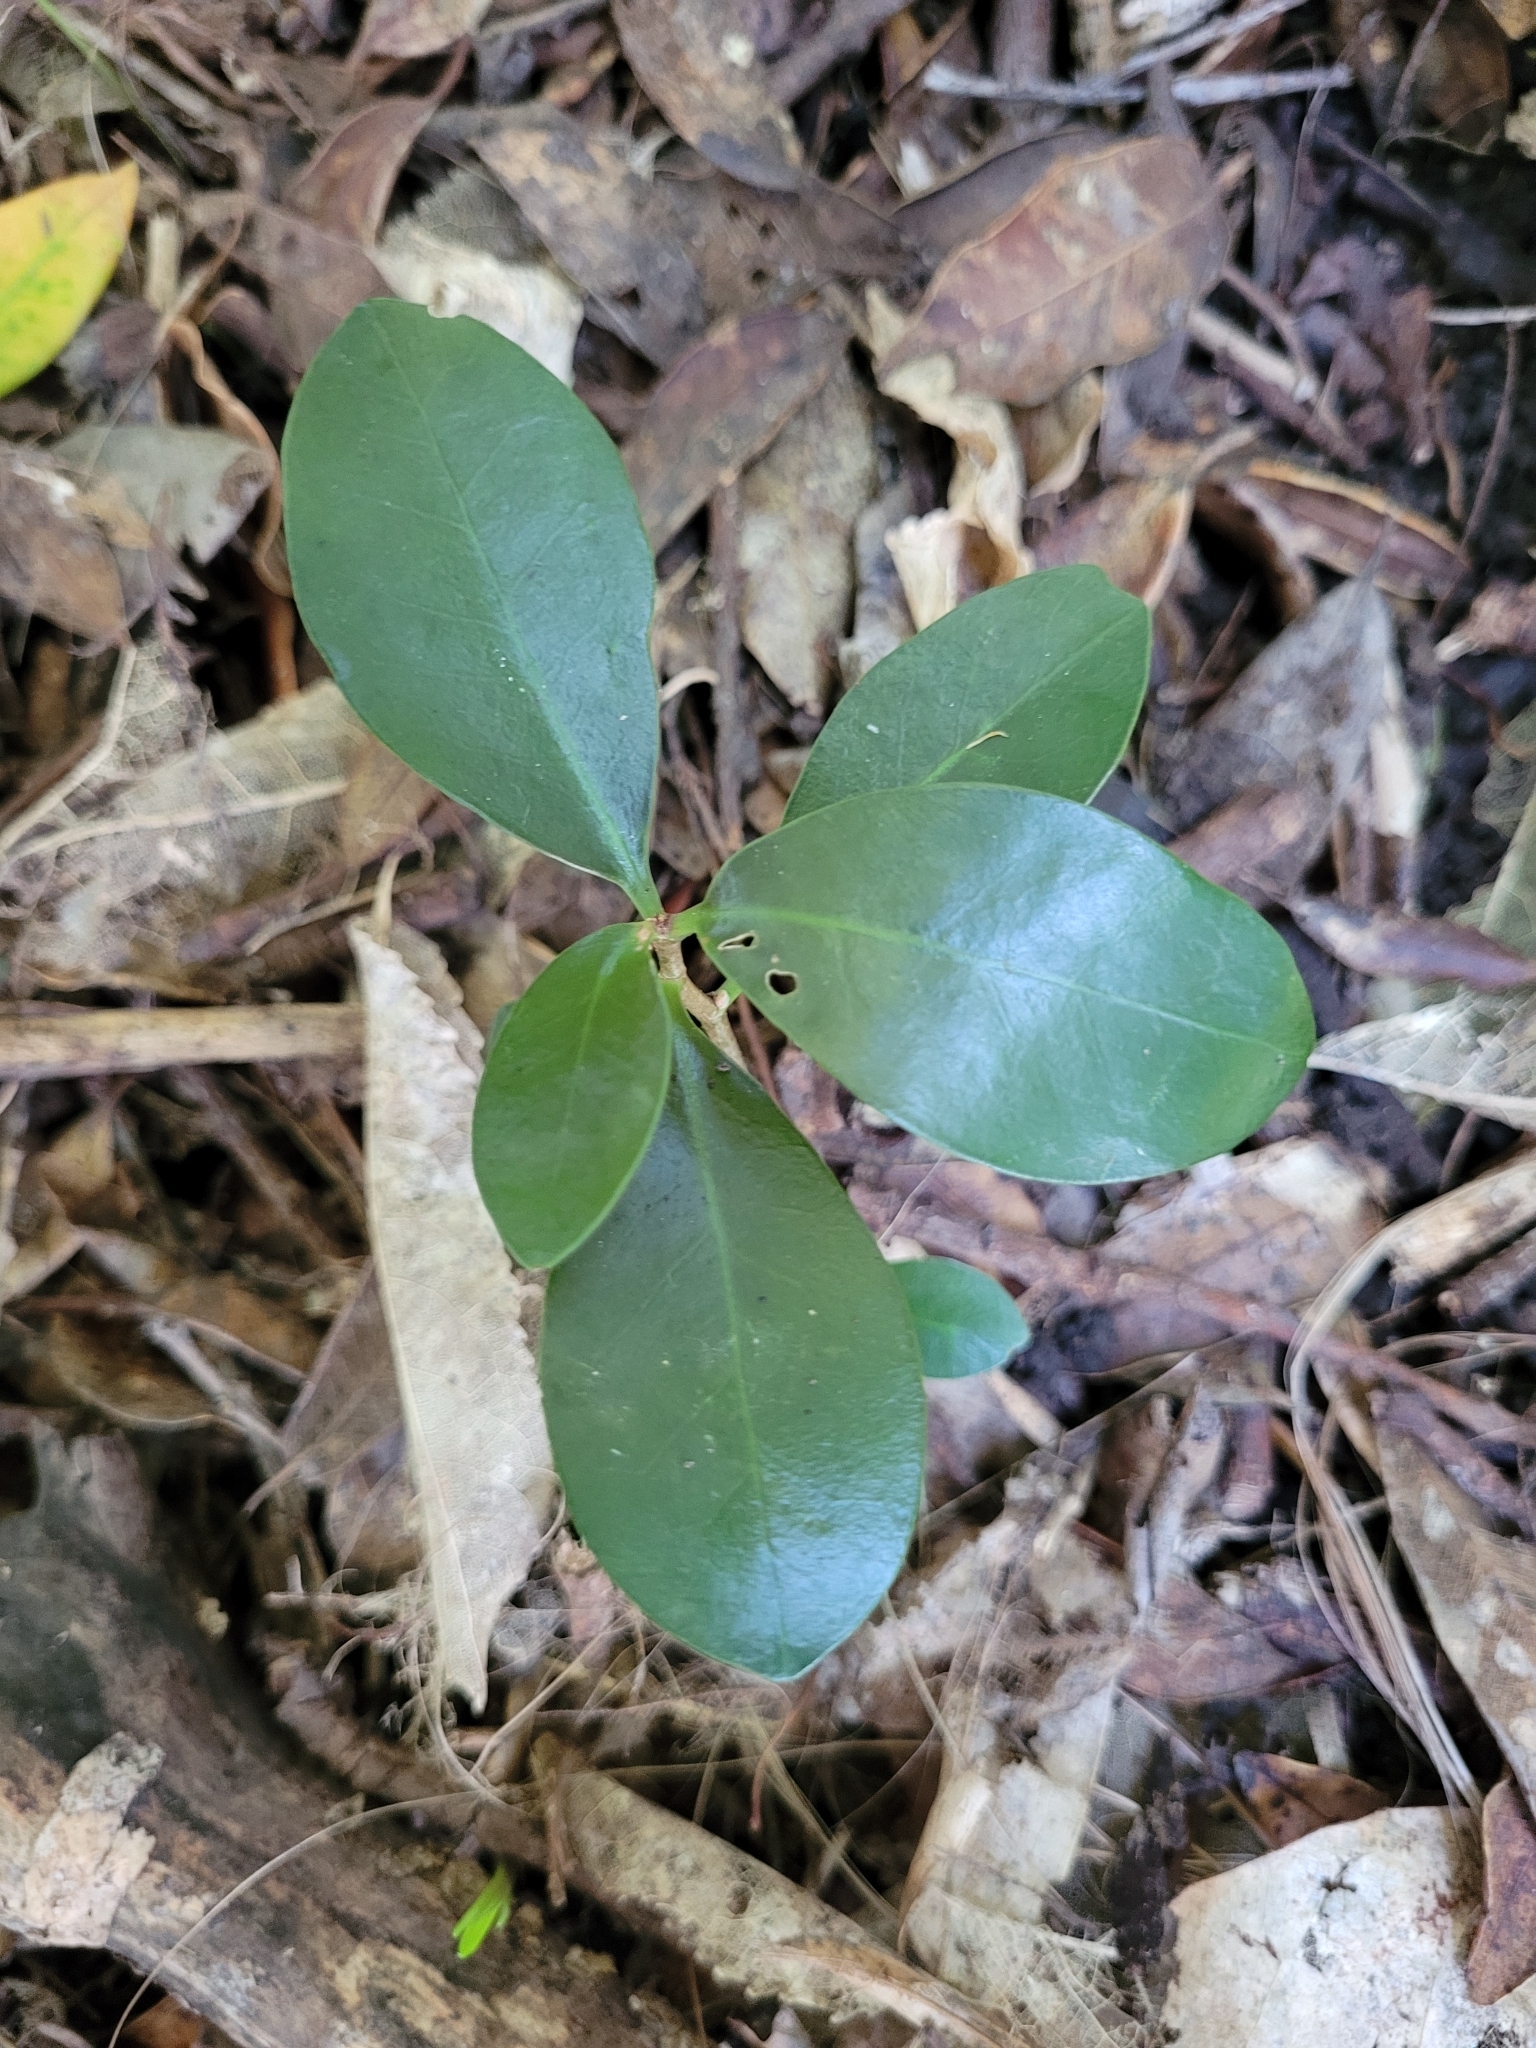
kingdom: Plantae
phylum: Tracheophyta
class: Magnoliopsida
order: Cucurbitales
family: Corynocarpaceae
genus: Corynocarpus
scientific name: Corynocarpus laevigatus
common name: New zealand laurel
